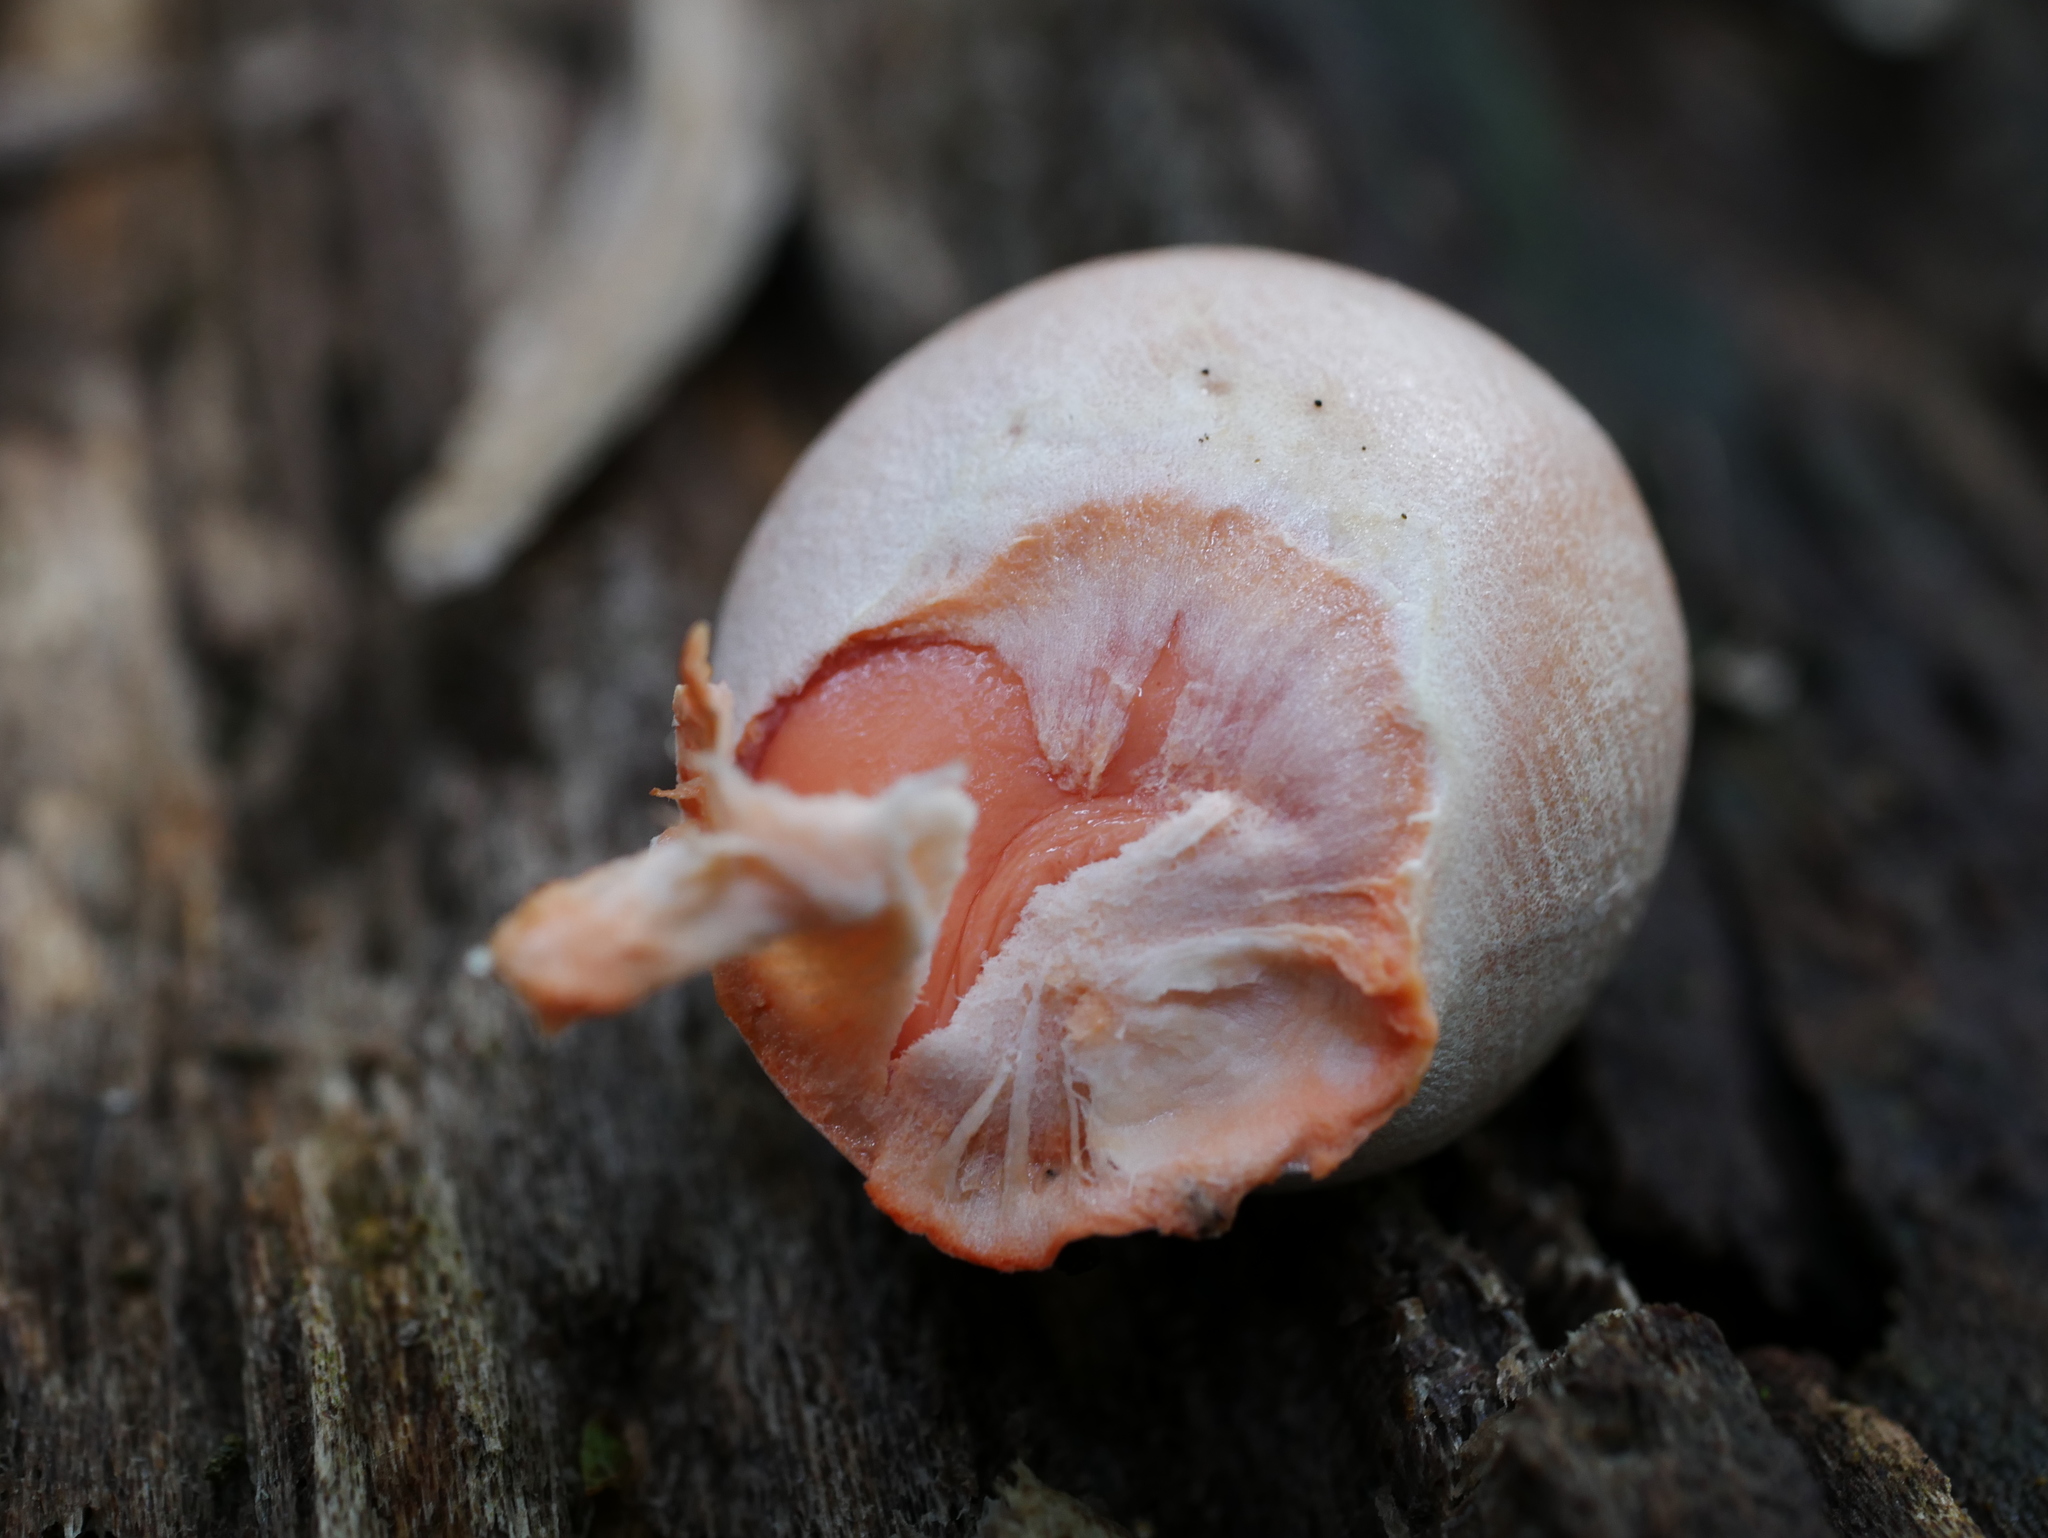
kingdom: Protozoa
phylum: Mycetozoa
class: Myxomycetes
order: Cribrariales
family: Tubiferaceae
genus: Lycogala
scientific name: Lycogala epidendrum
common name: Wolf's milk
